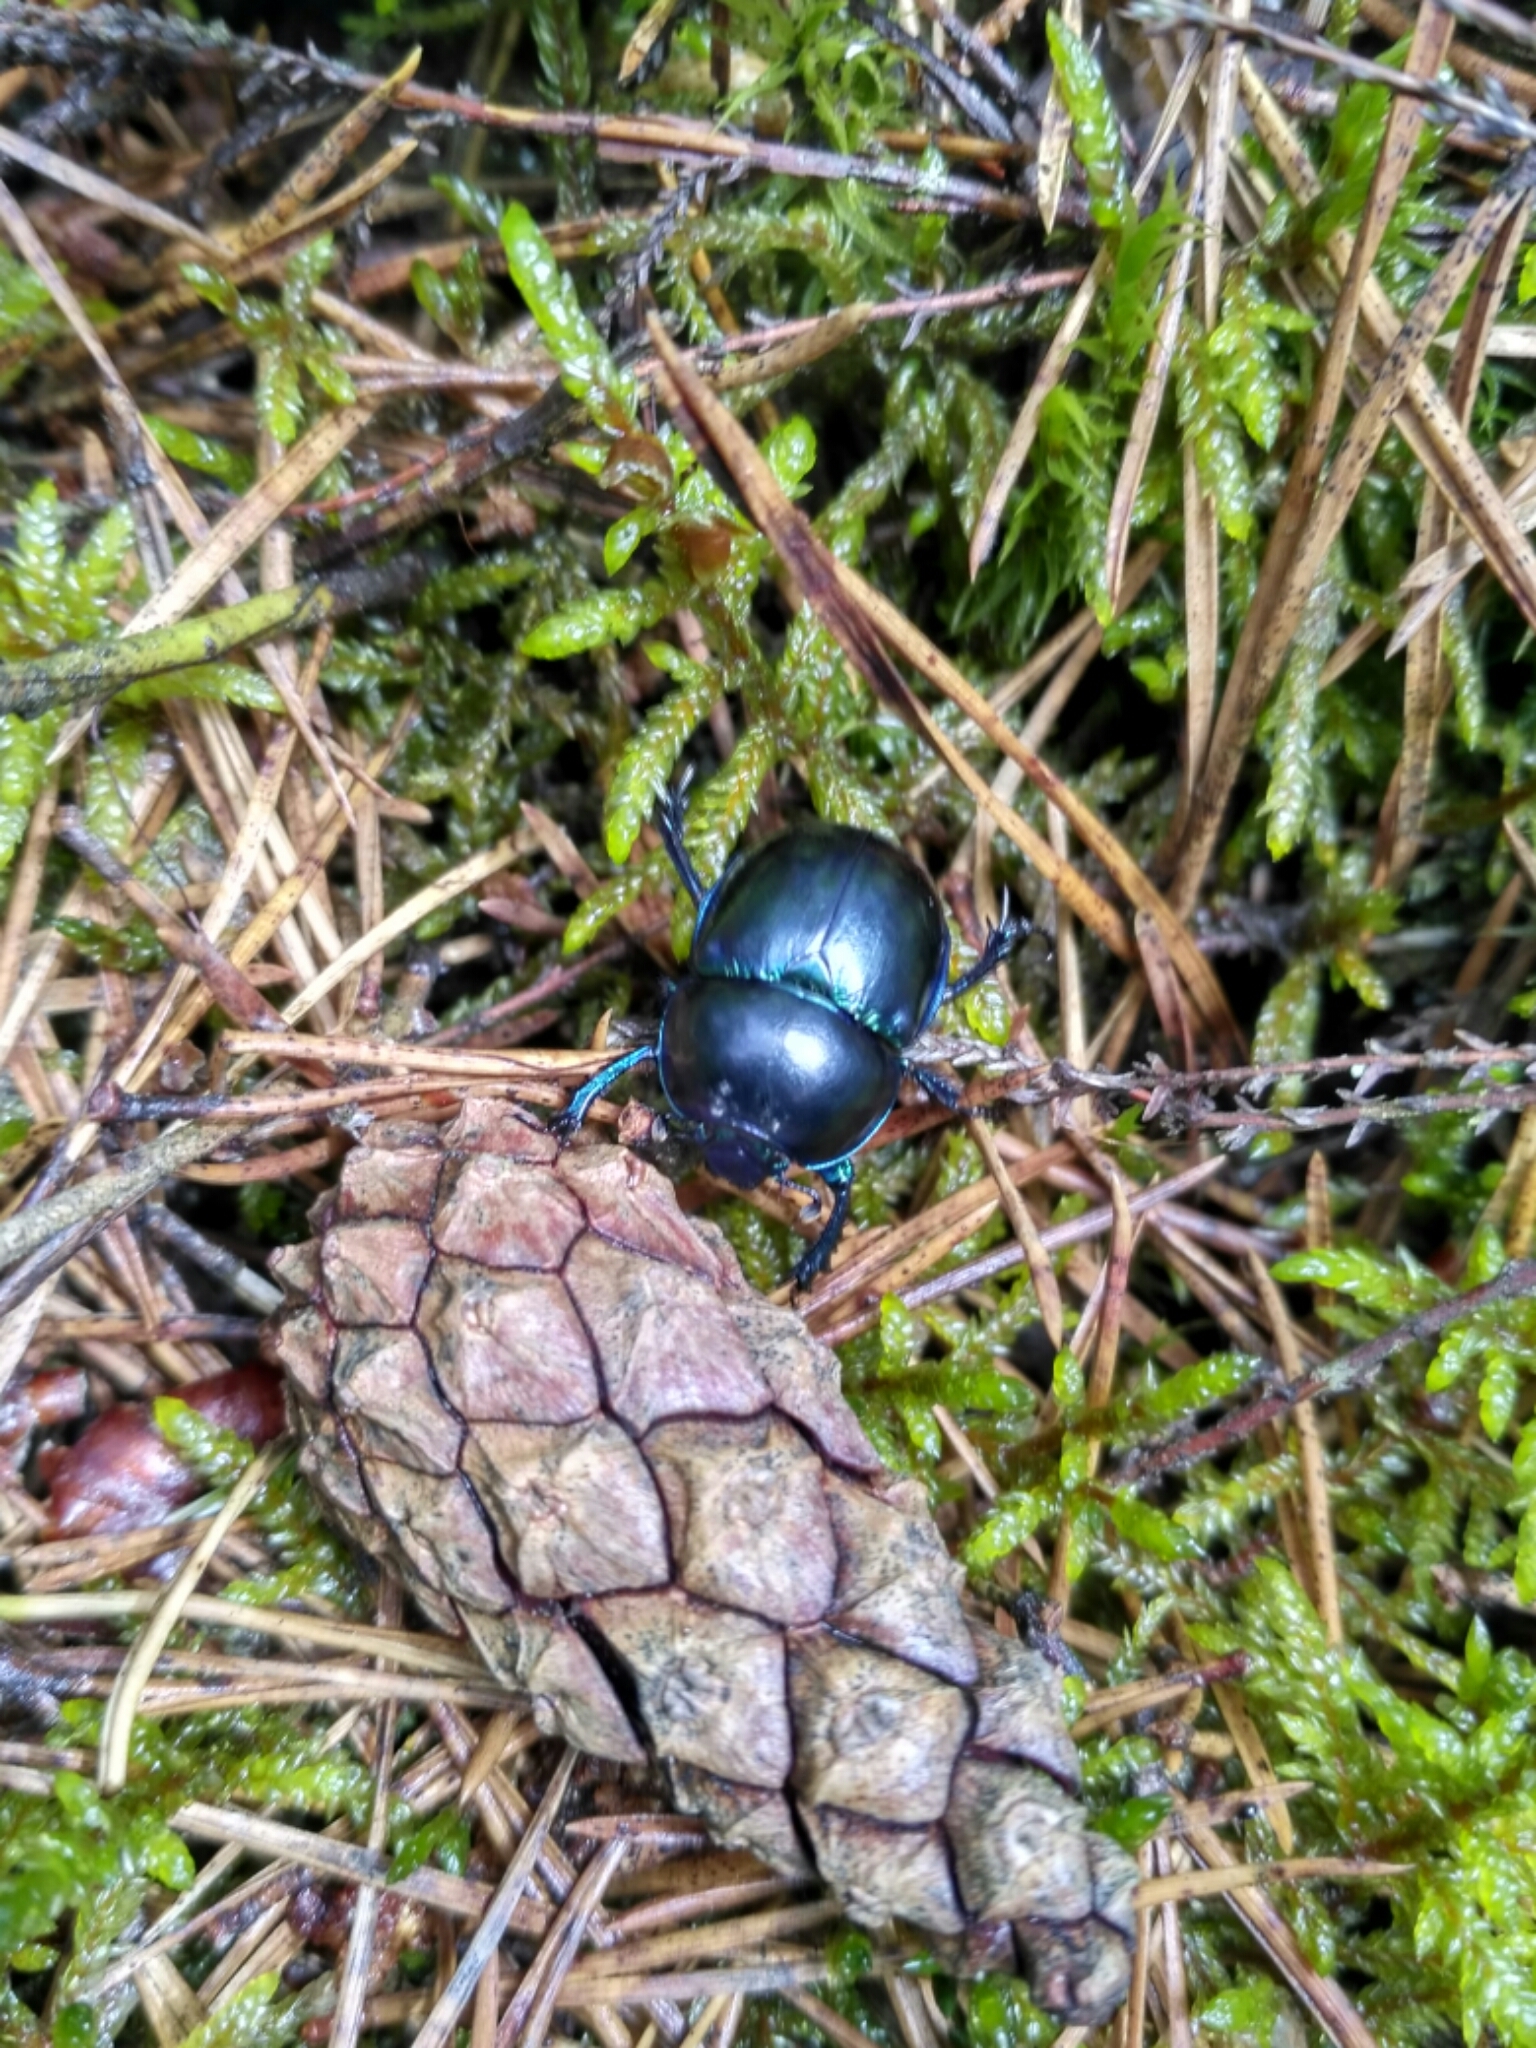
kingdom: Animalia
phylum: Arthropoda
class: Insecta
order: Coleoptera
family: Geotrupidae
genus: Trypocopris
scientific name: Trypocopris vernalis
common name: Spring dumbledor
